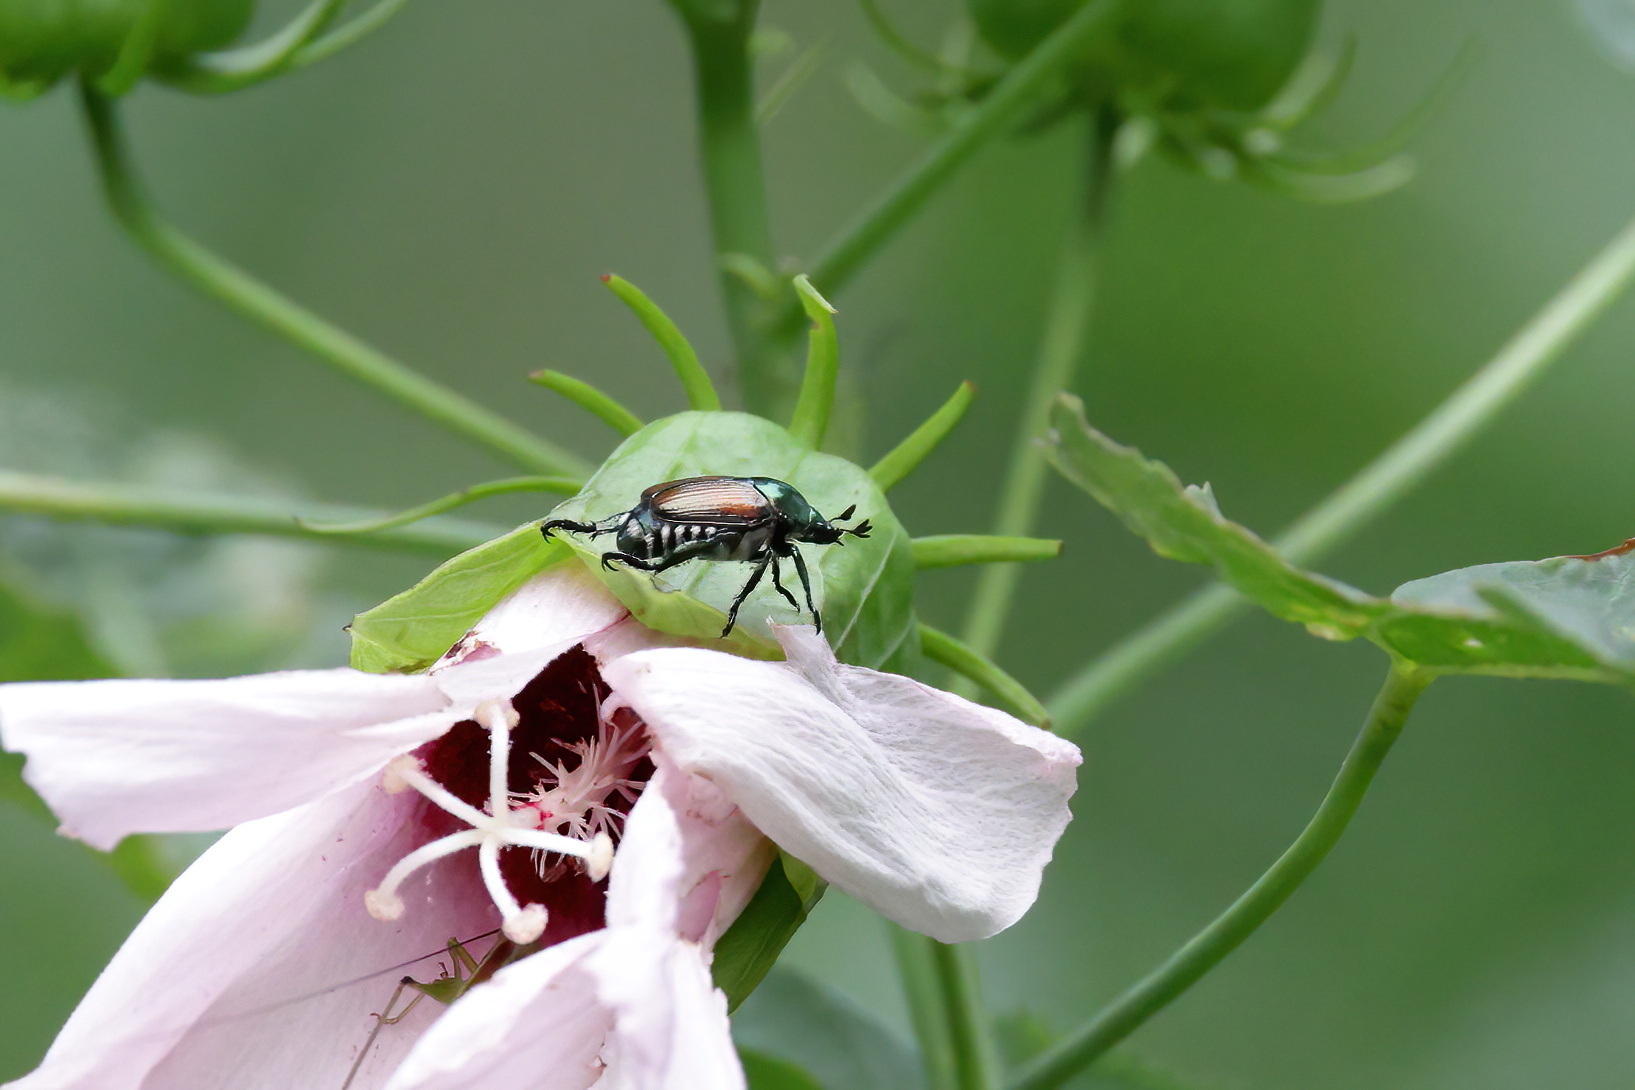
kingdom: Animalia
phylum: Arthropoda
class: Insecta
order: Coleoptera
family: Scarabaeidae
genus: Popillia
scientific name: Popillia japonica
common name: Japanese beetle
